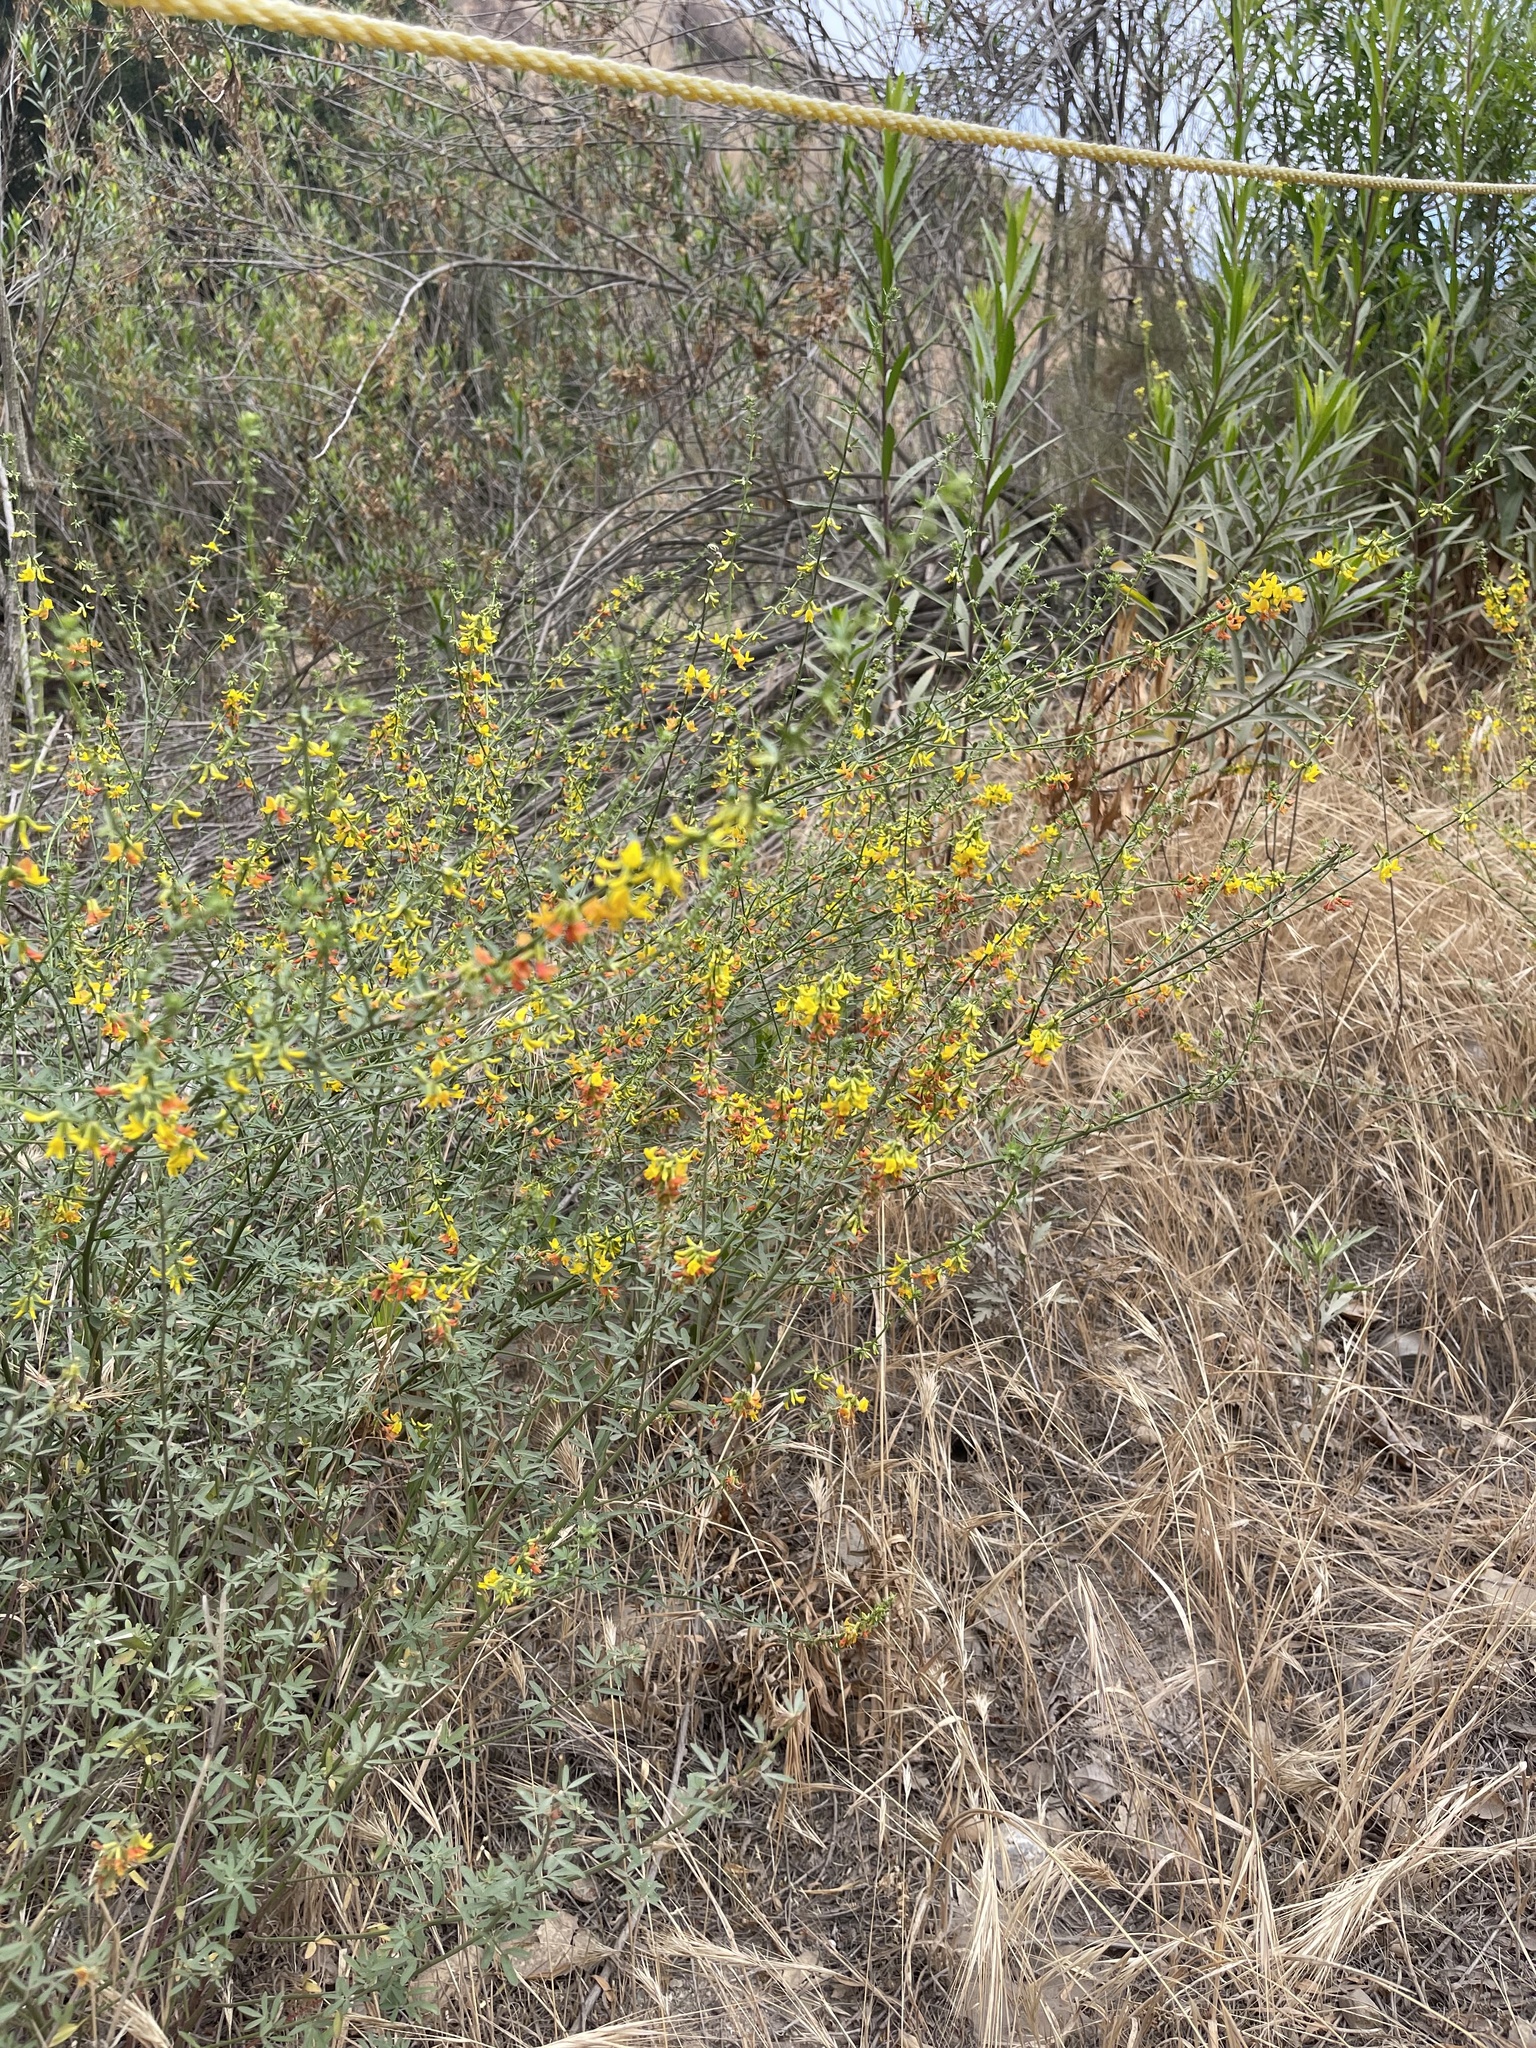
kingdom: Plantae
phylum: Tracheophyta
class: Magnoliopsida
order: Fabales
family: Fabaceae
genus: Acmispon
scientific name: Acmispon glaber
